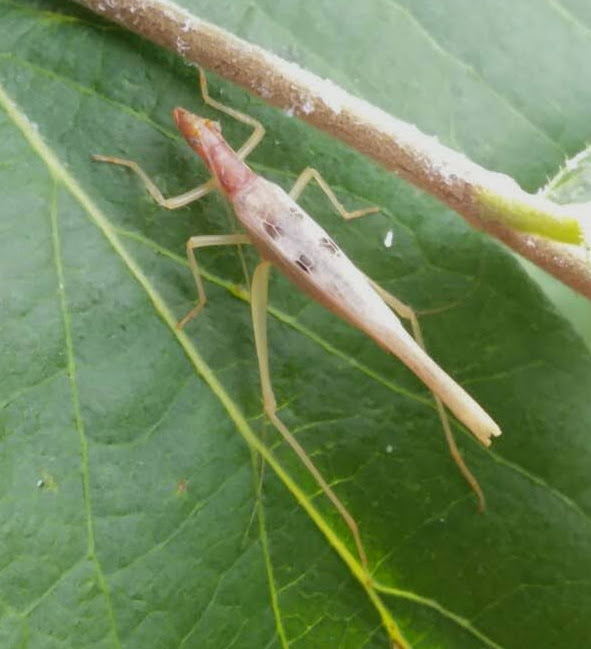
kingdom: Animalia
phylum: Arthropoda
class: Insecta
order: Orthoptera
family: Gryllidae
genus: Neoxabea
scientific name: Neoxabea bipunctata
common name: Two-spotted tree cricket
